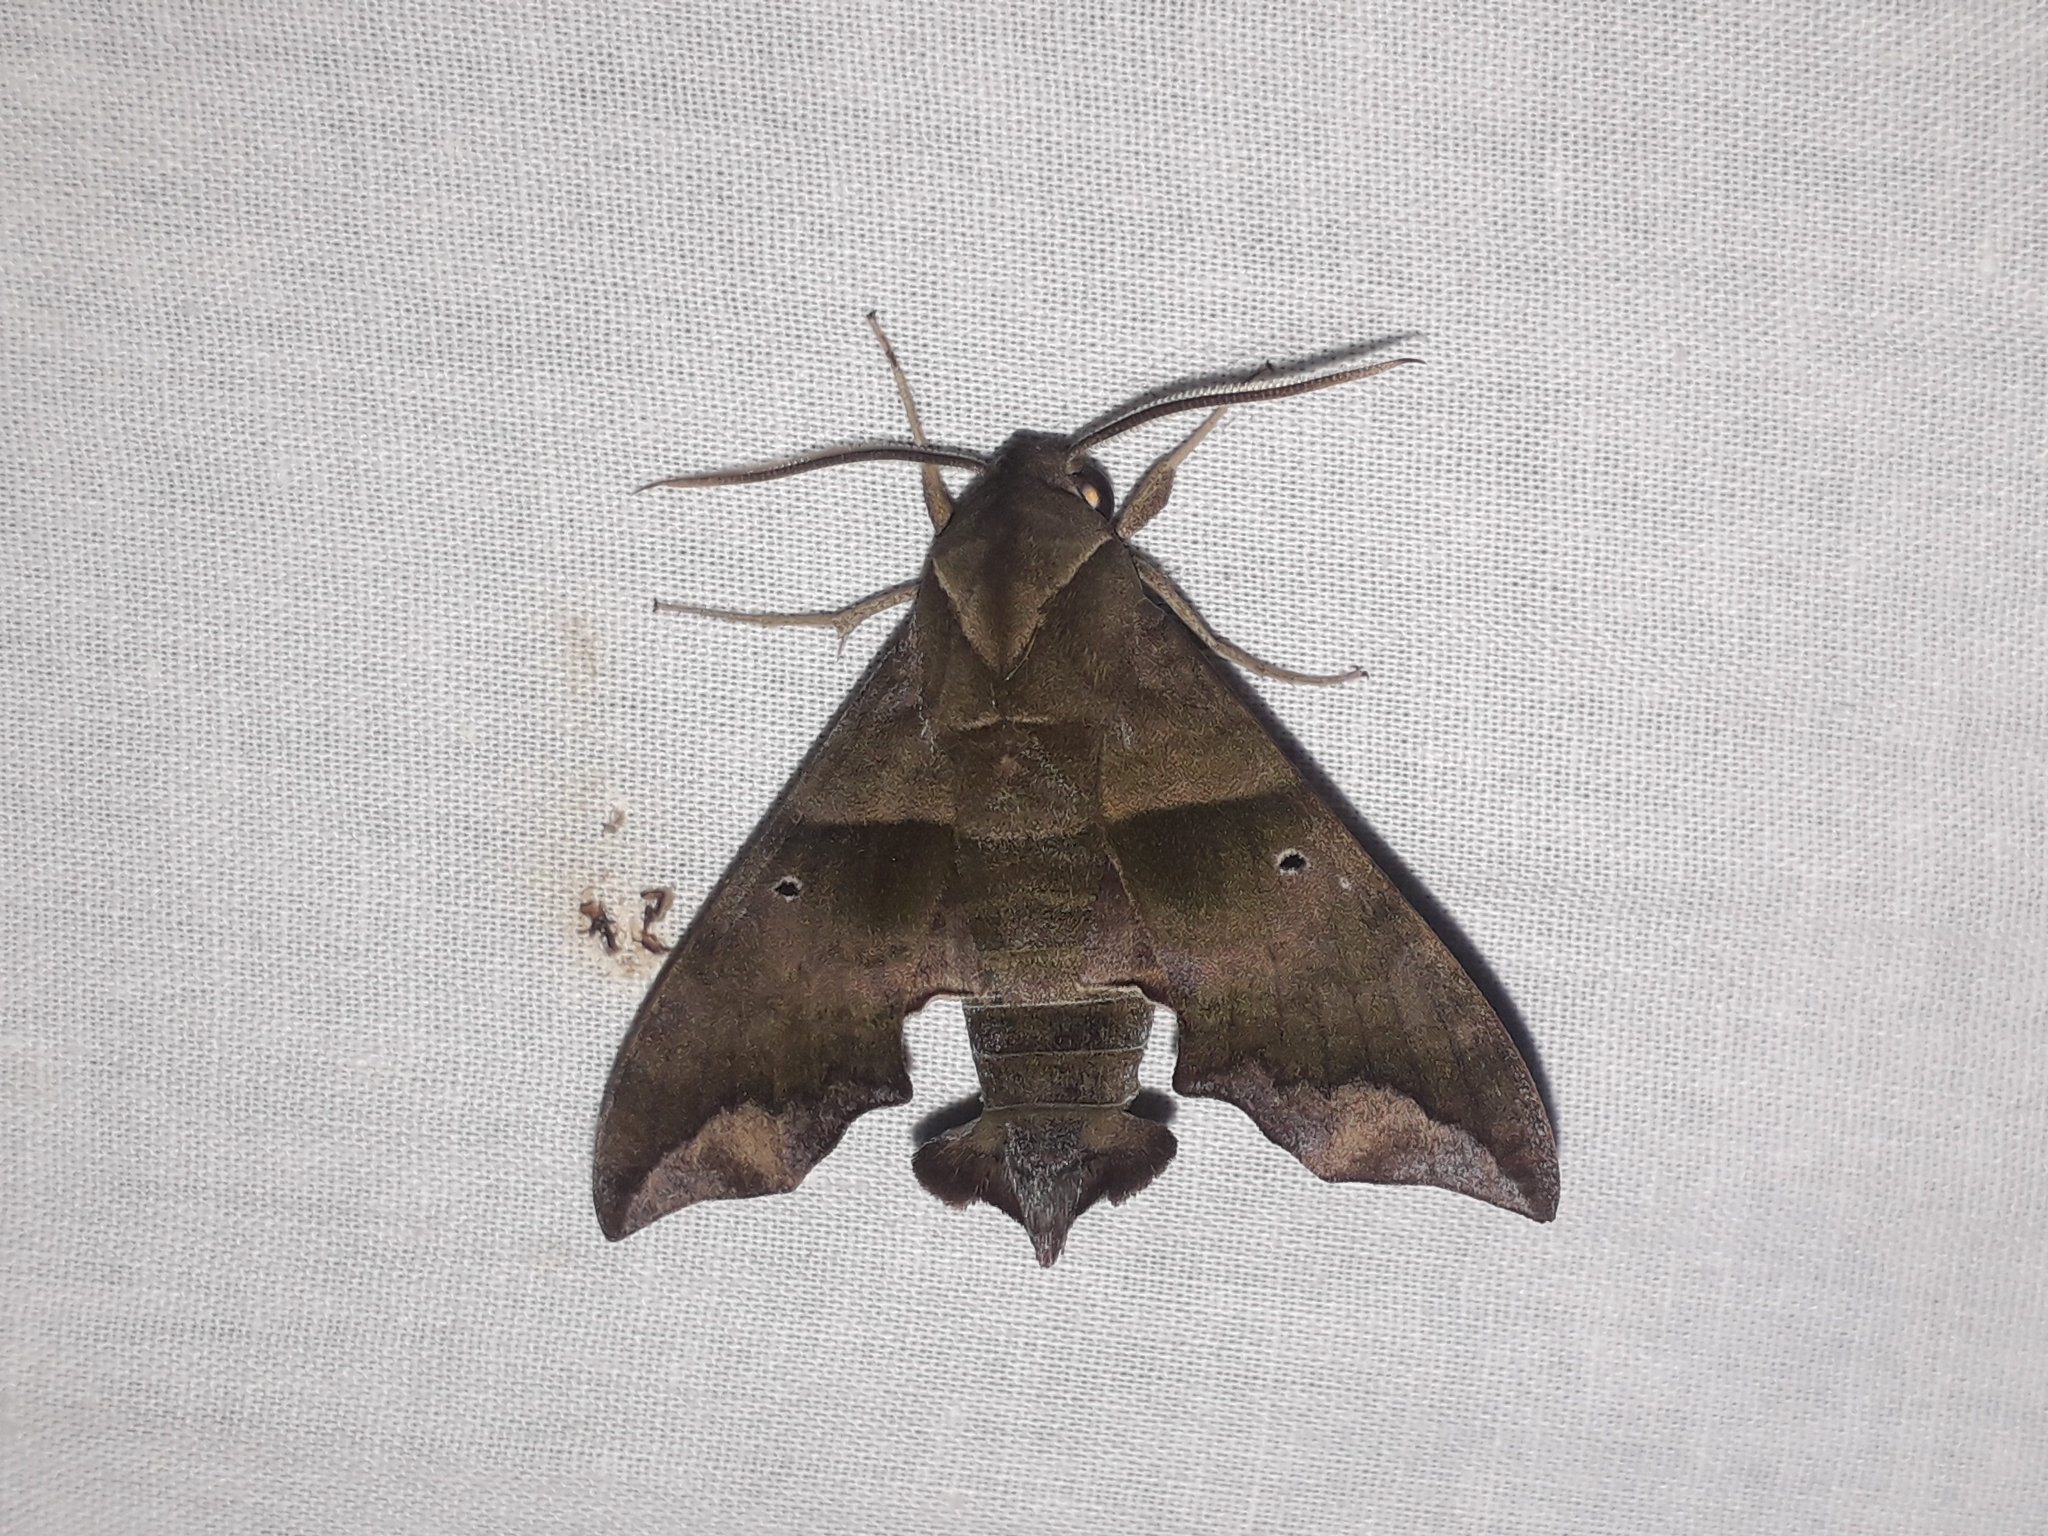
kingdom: Animalia
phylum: Arthropoda
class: Insecta
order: Lepidoptera
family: Sphingidae
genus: Perigonia
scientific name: Perigonia lusca
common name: Half-blind sphinx
